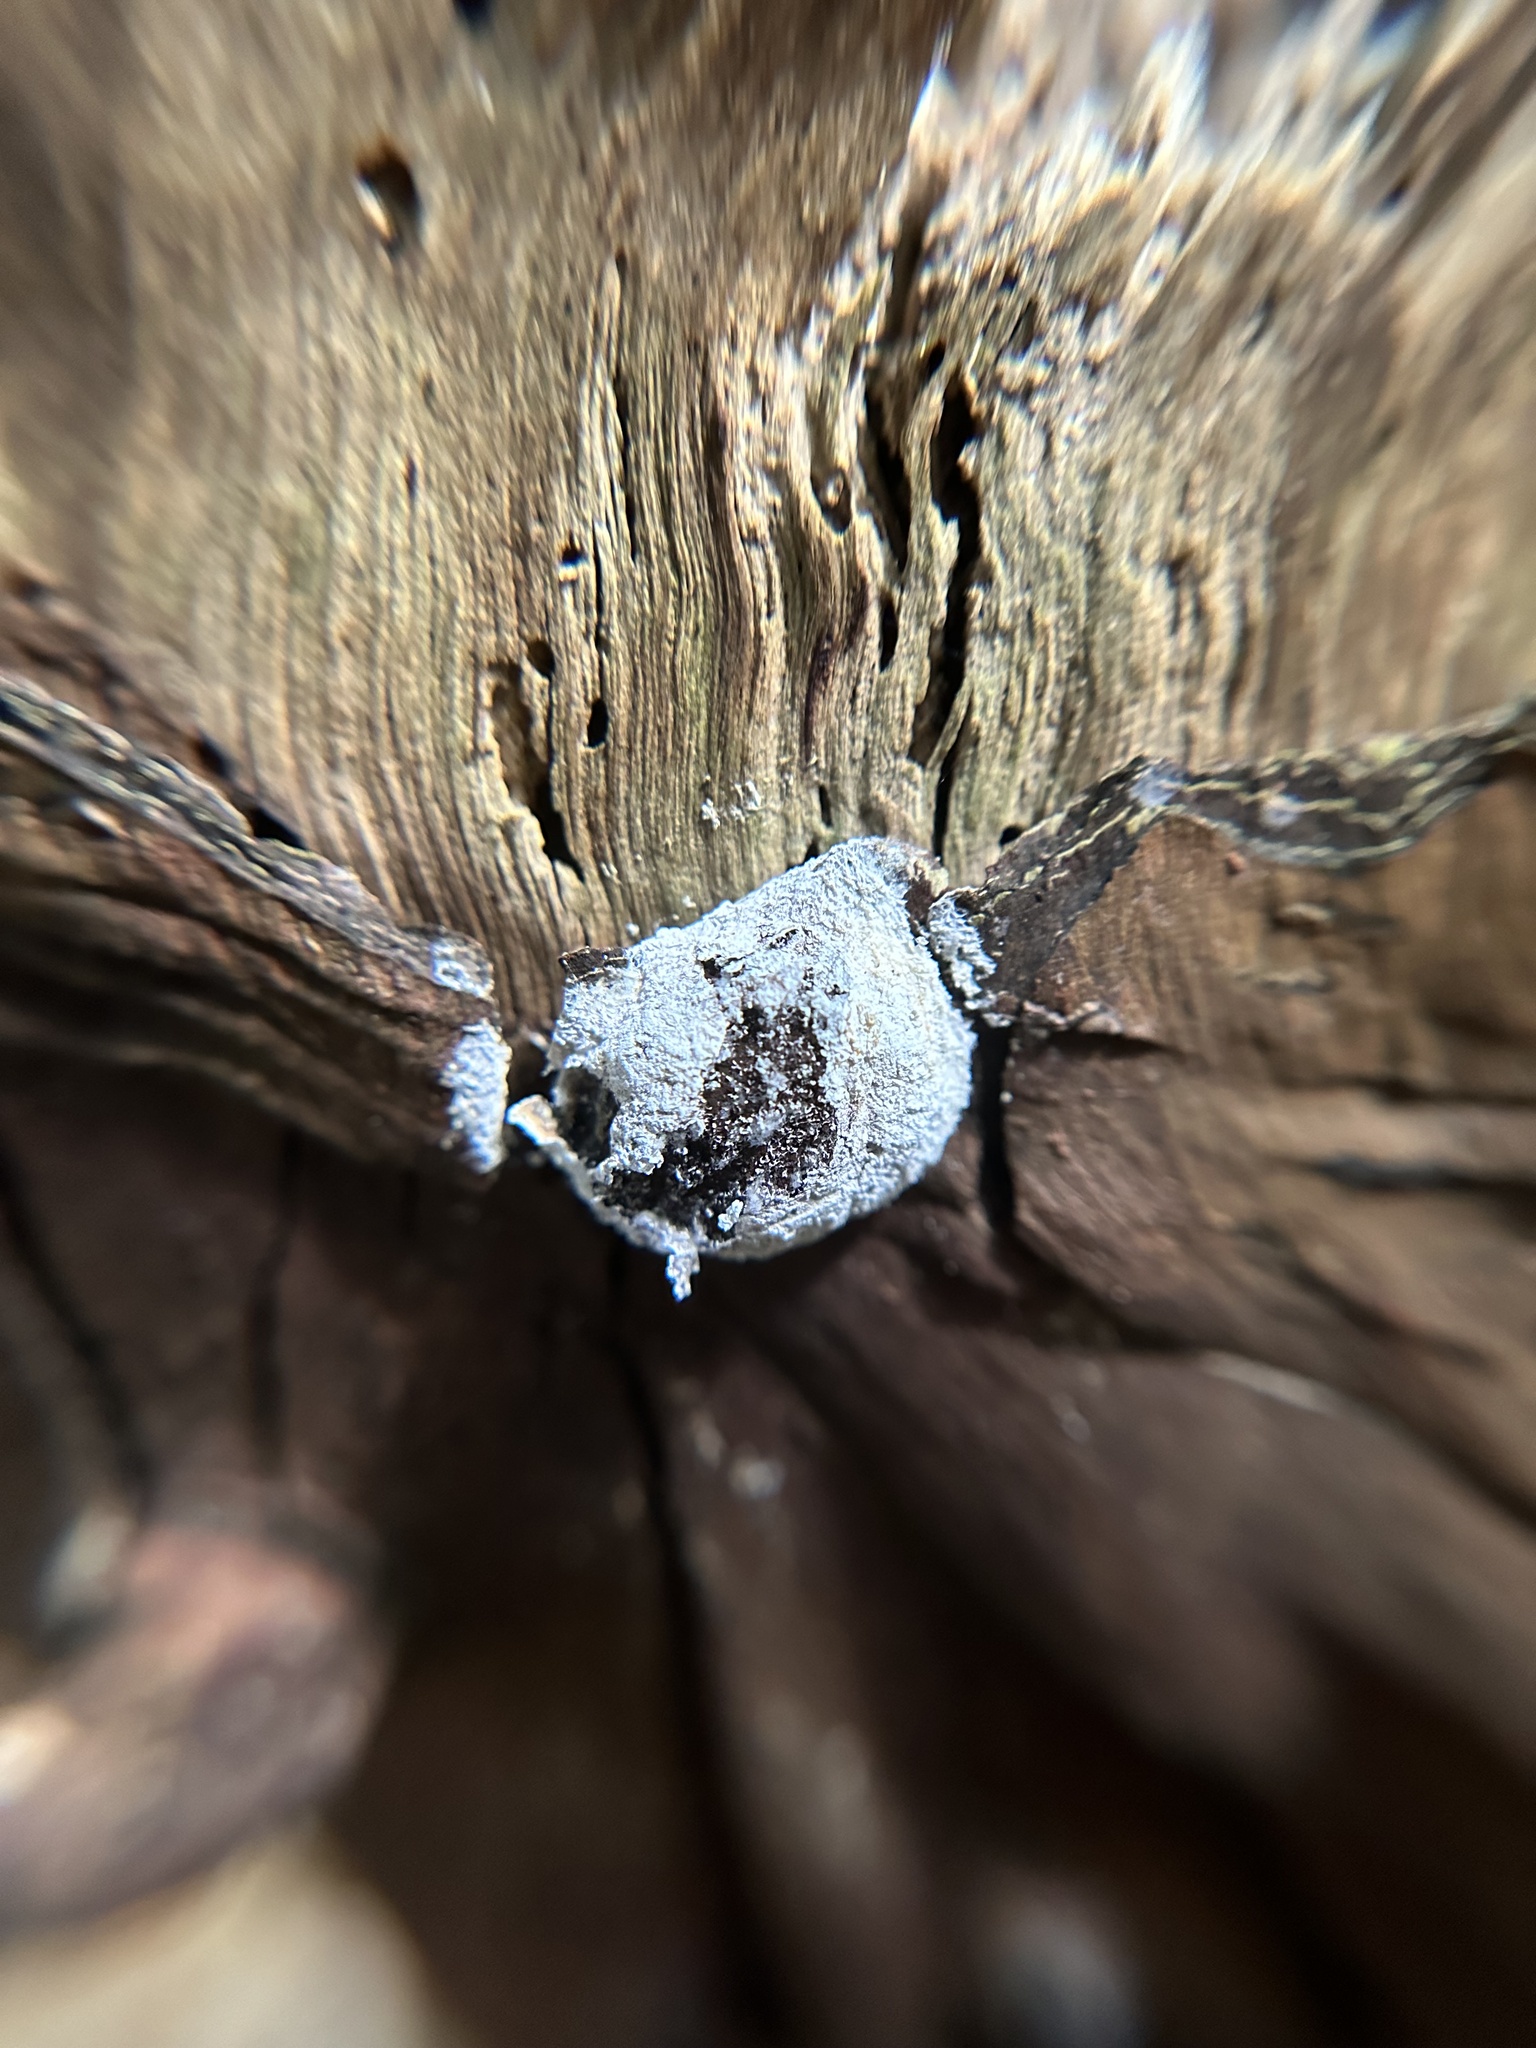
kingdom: Protozoa
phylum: Mycetozoa
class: Myxomycetes
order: Cribrariales
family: Tubiferaceae
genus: Reticularia
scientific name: Reticularia lycoperdon
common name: False puffball
